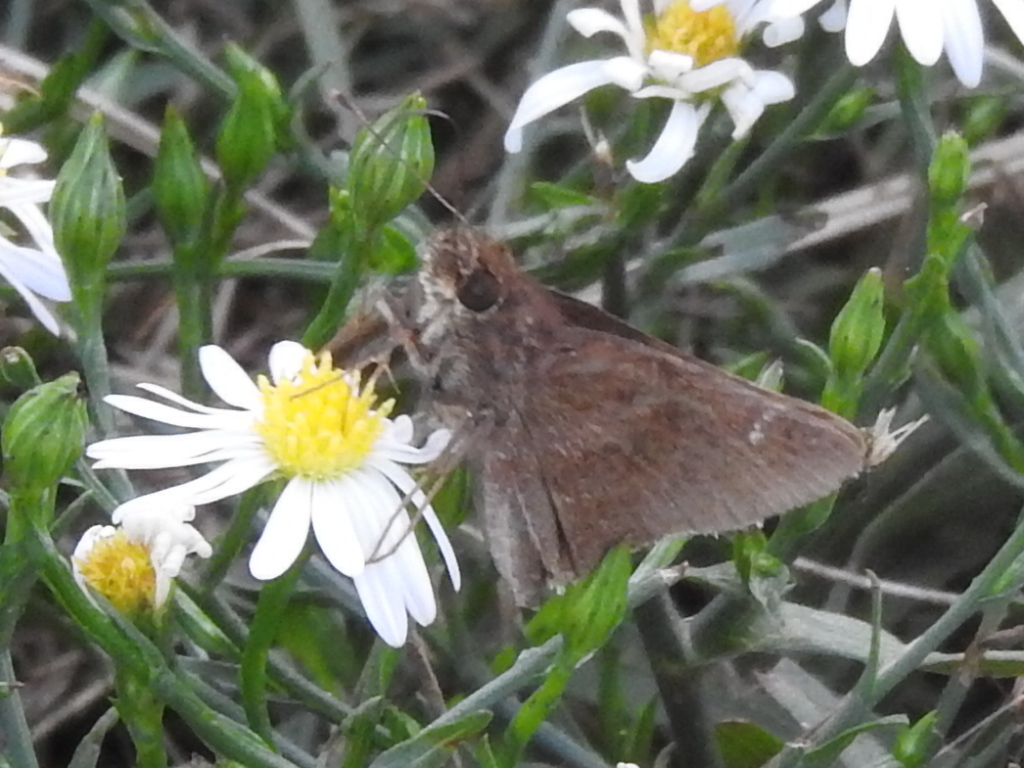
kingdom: Animalia
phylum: Arthropoda
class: Insecta
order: Lepidoptera
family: Hesperiidae
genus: Lerema
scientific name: Lerema accius
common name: Clouded skipper
